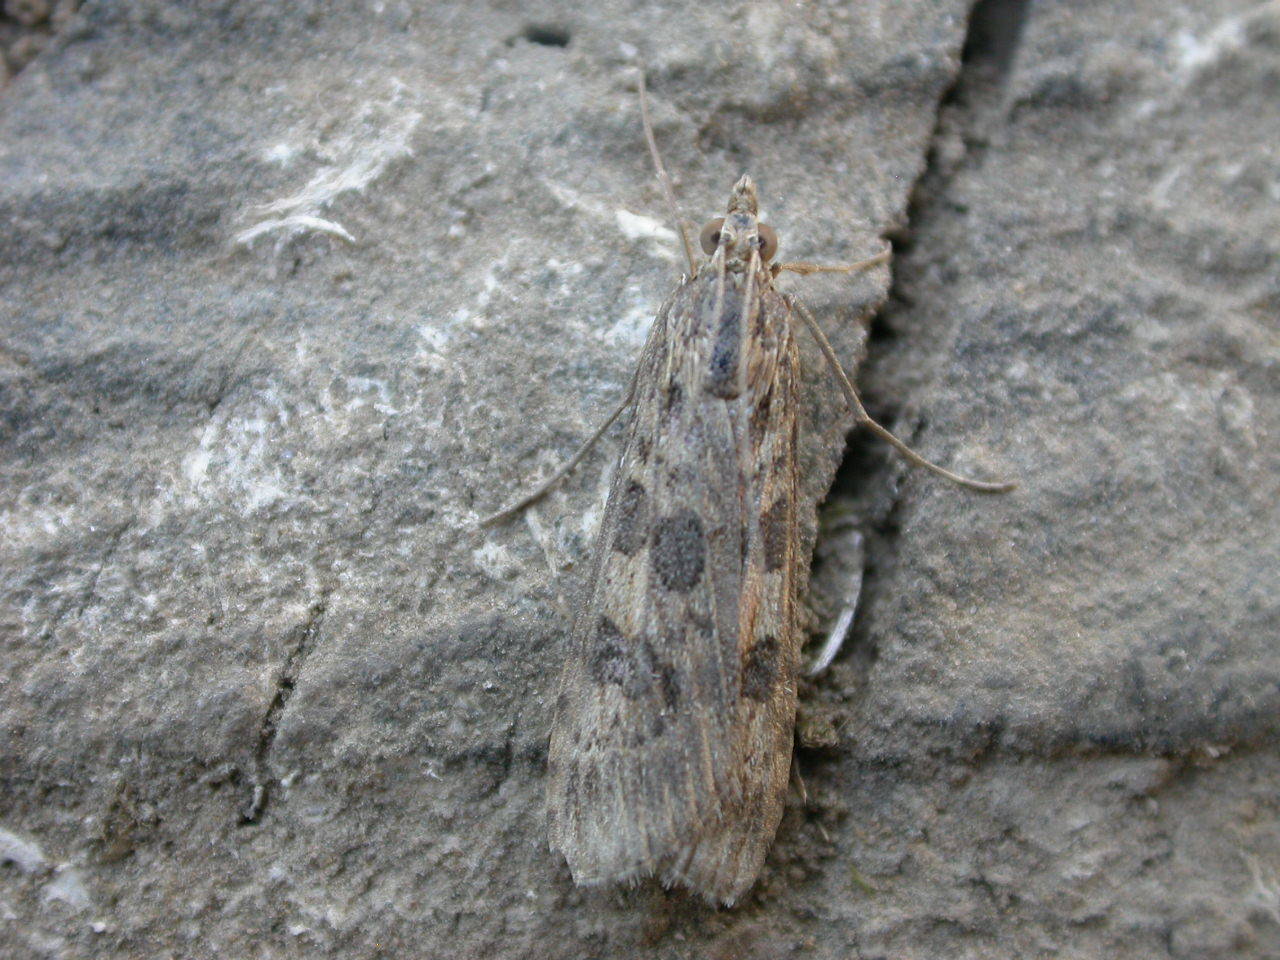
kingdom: Animalia
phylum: Arthropoda
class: Insecta
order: Lepidoptera
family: Crambidae
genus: Nomophila
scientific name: Nomophila noctuella
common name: Rush veneer
